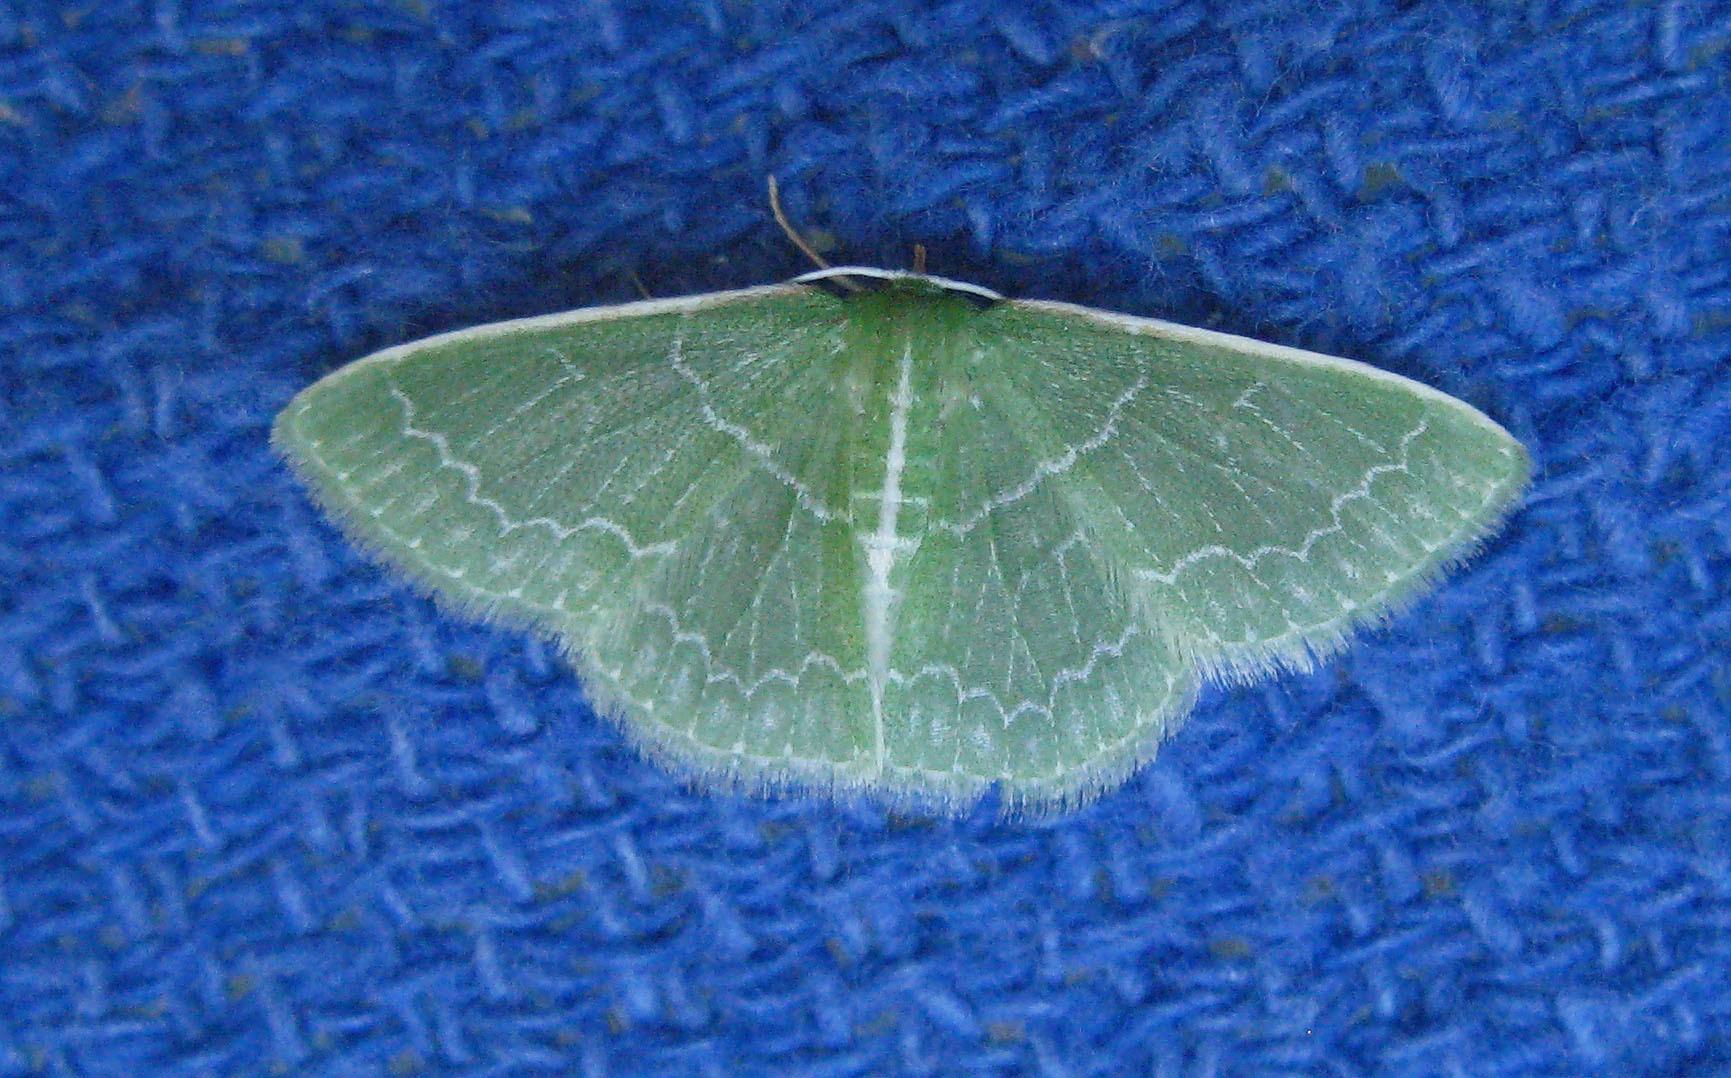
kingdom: Animalia
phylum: Arthropoda
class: Insecta
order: Lepidoptera
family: Geometridae
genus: Synchlora
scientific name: Synchlora aerata
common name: Wavy-lined emerald
